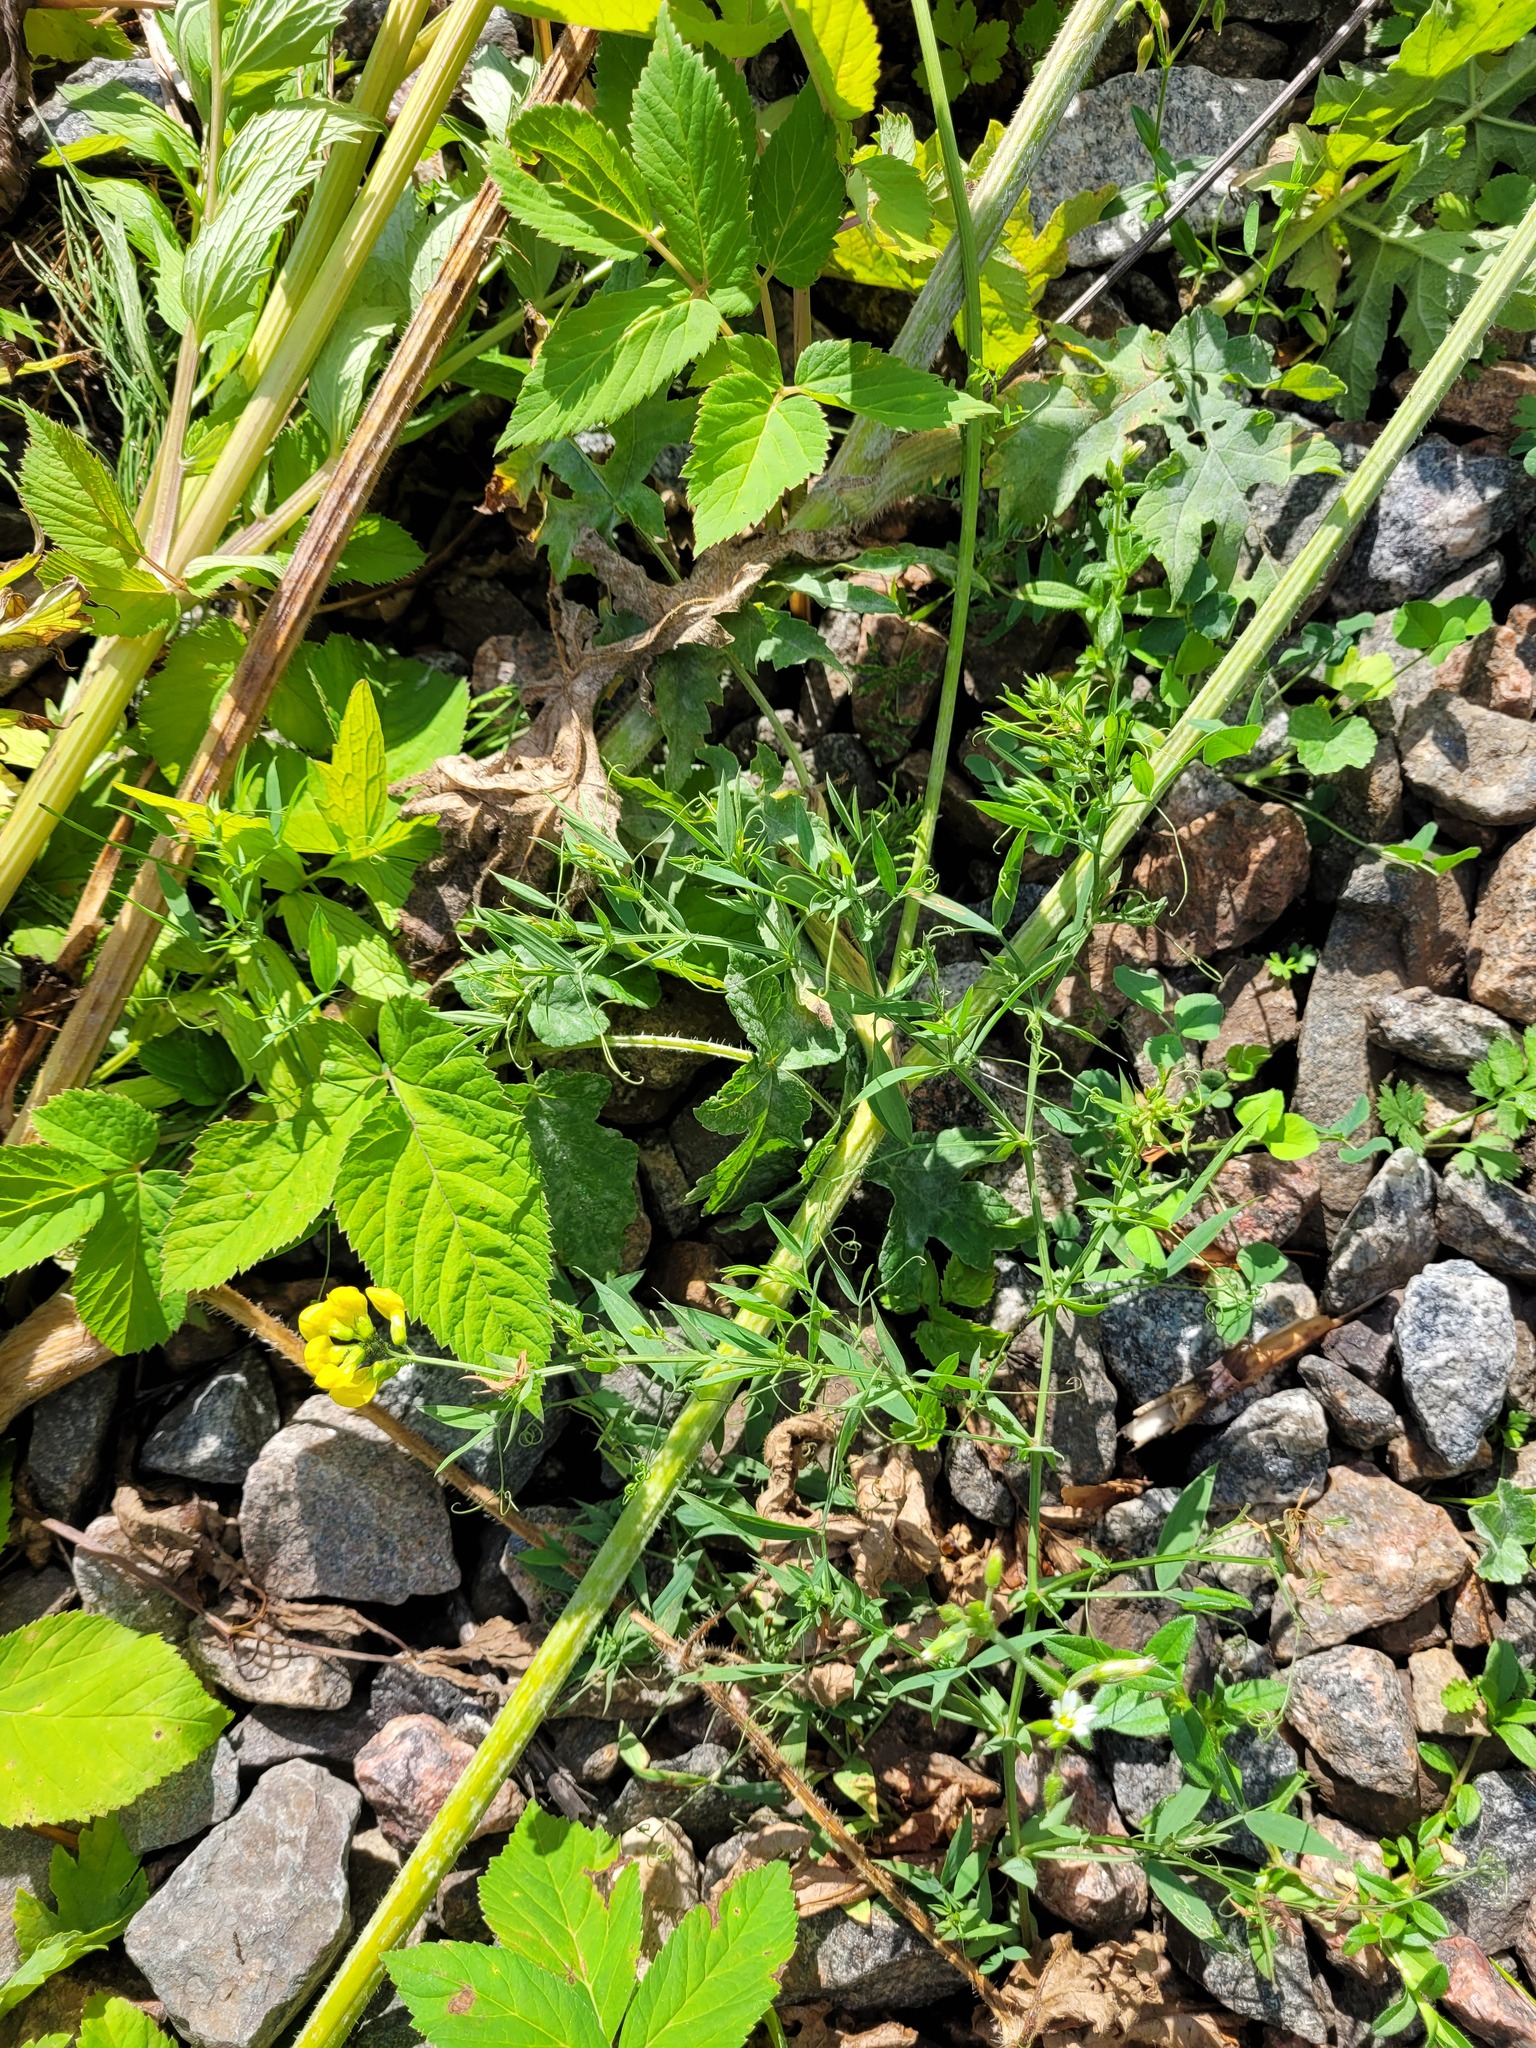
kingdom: Plantae
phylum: Tracheophyta
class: Magnoliopsida
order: Fabales
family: Fabaceae
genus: Lathyrus
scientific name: Lathyrus pratensis
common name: Meadow vetchling
